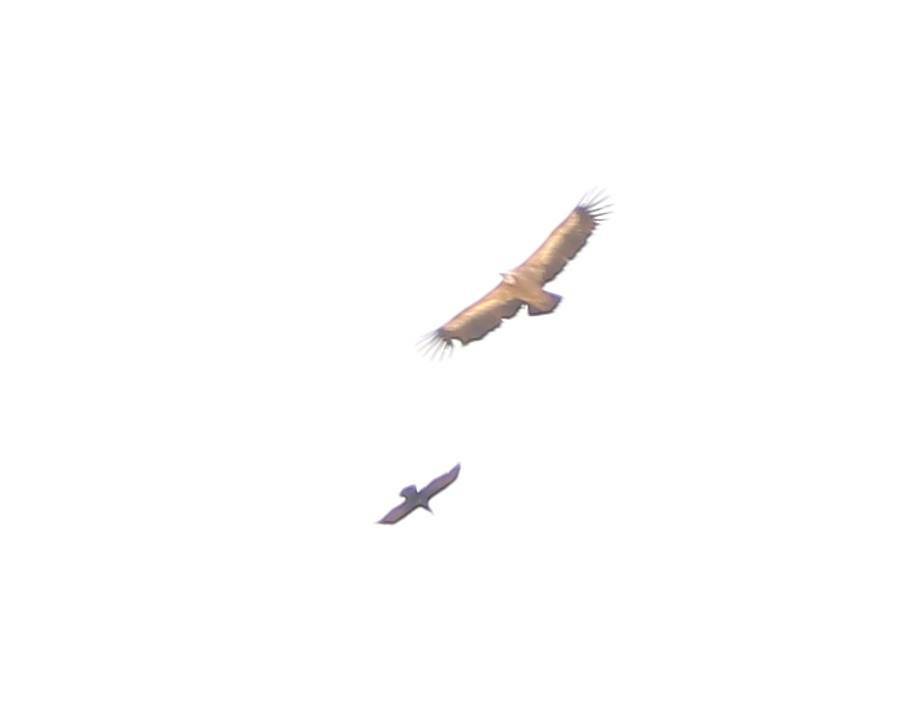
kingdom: Animalia
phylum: Chordata
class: Aves
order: Accipitriformes
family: Accipitridae
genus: Gyps
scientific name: Gyps fulvus
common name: Griffon vulture
